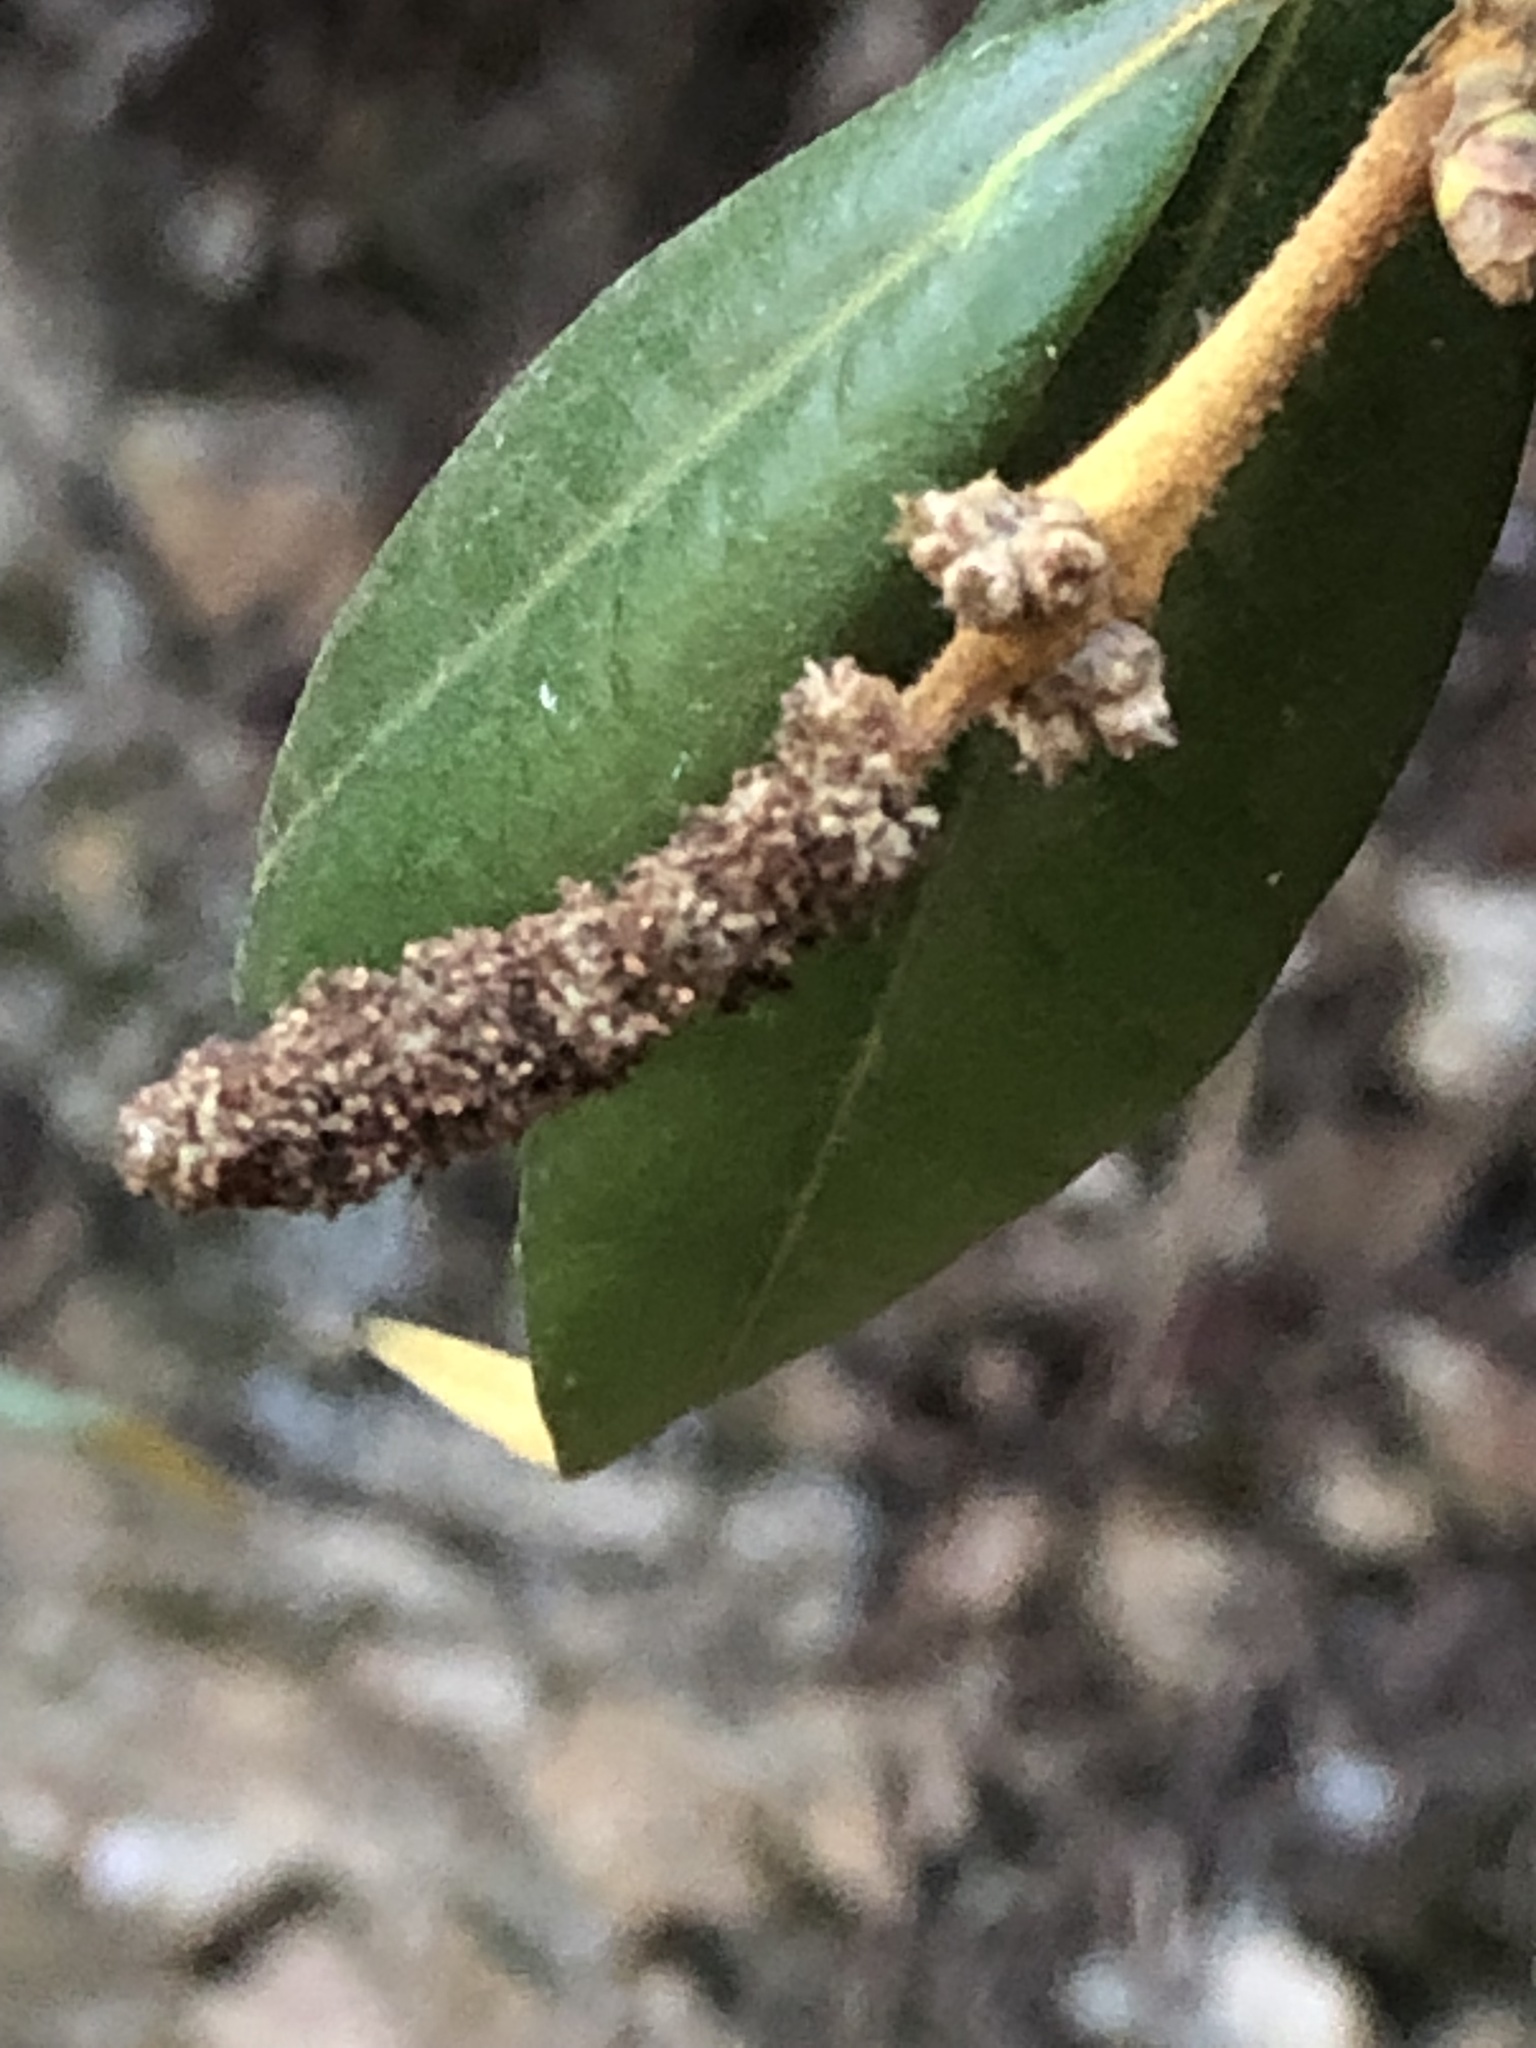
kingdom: Plantae
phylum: Tracheophyta
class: Magnoliopsida
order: Fagales
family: Fagaceae
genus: Chrysolepis
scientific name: Chrysolepis chrysophylla
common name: Giant chinquapin
